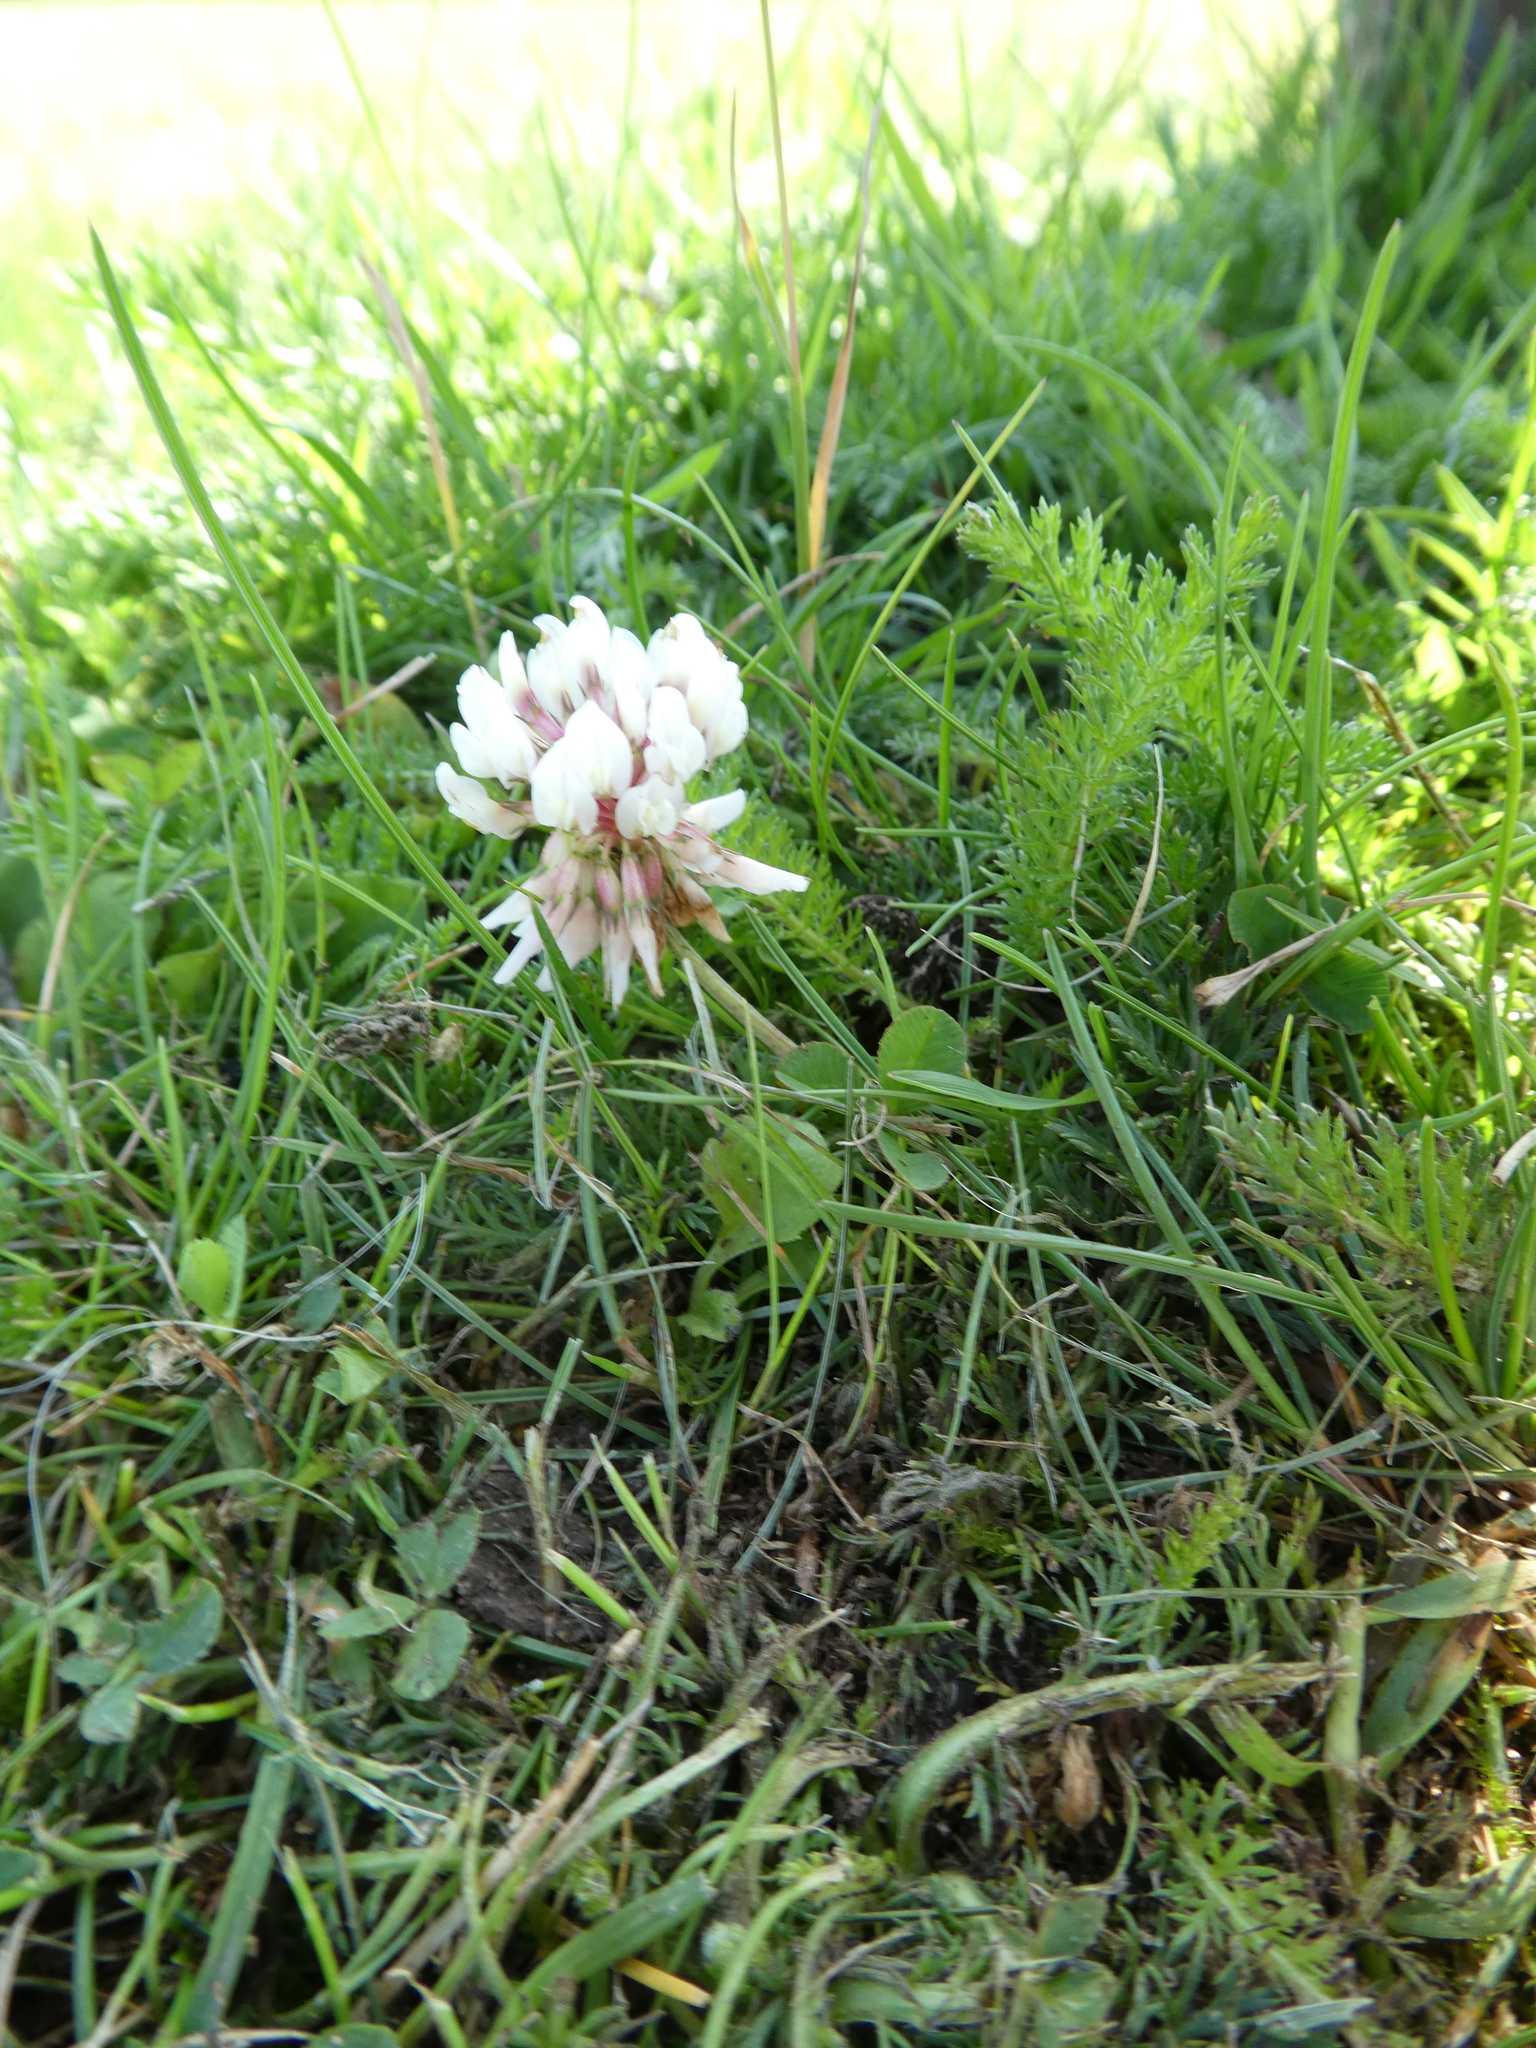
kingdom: Plantae
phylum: Tracheophyta
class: Magnoliopsida
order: Fabales
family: Fabaceae
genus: Trifolium
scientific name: Trifolium repens
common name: White clover
